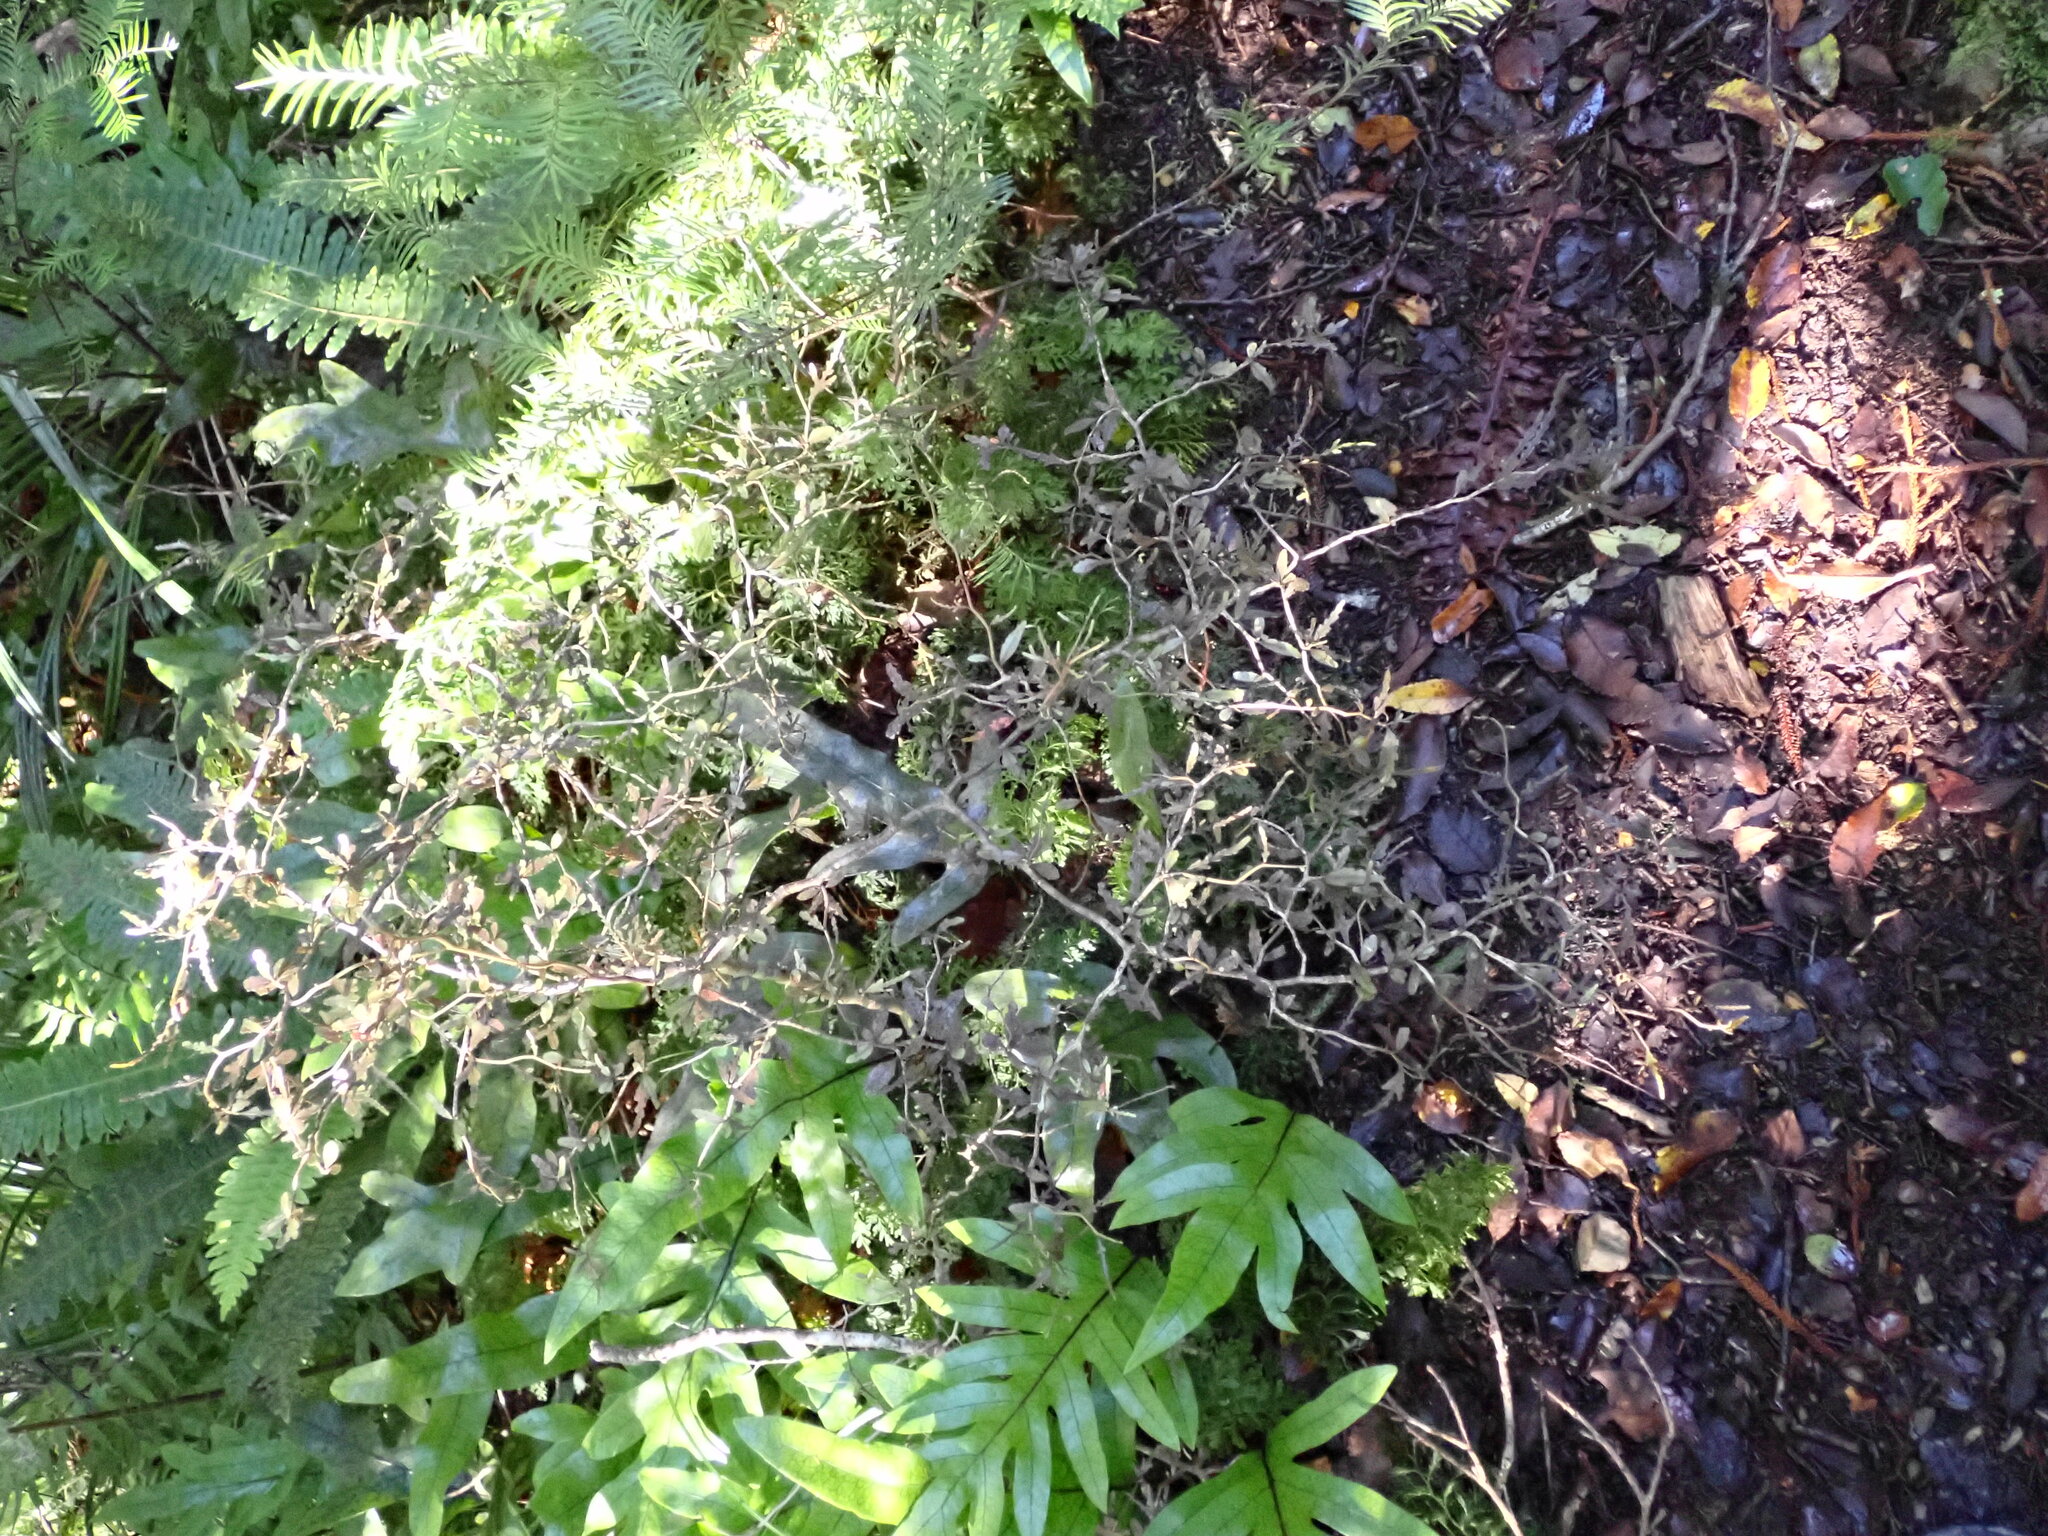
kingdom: Plantae
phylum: Tracheophyta
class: Magnoliopsida
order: Oxalidales
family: Elaeocarpaceae
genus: Elaeocarpus
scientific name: Elaeocarpus hookerianus
